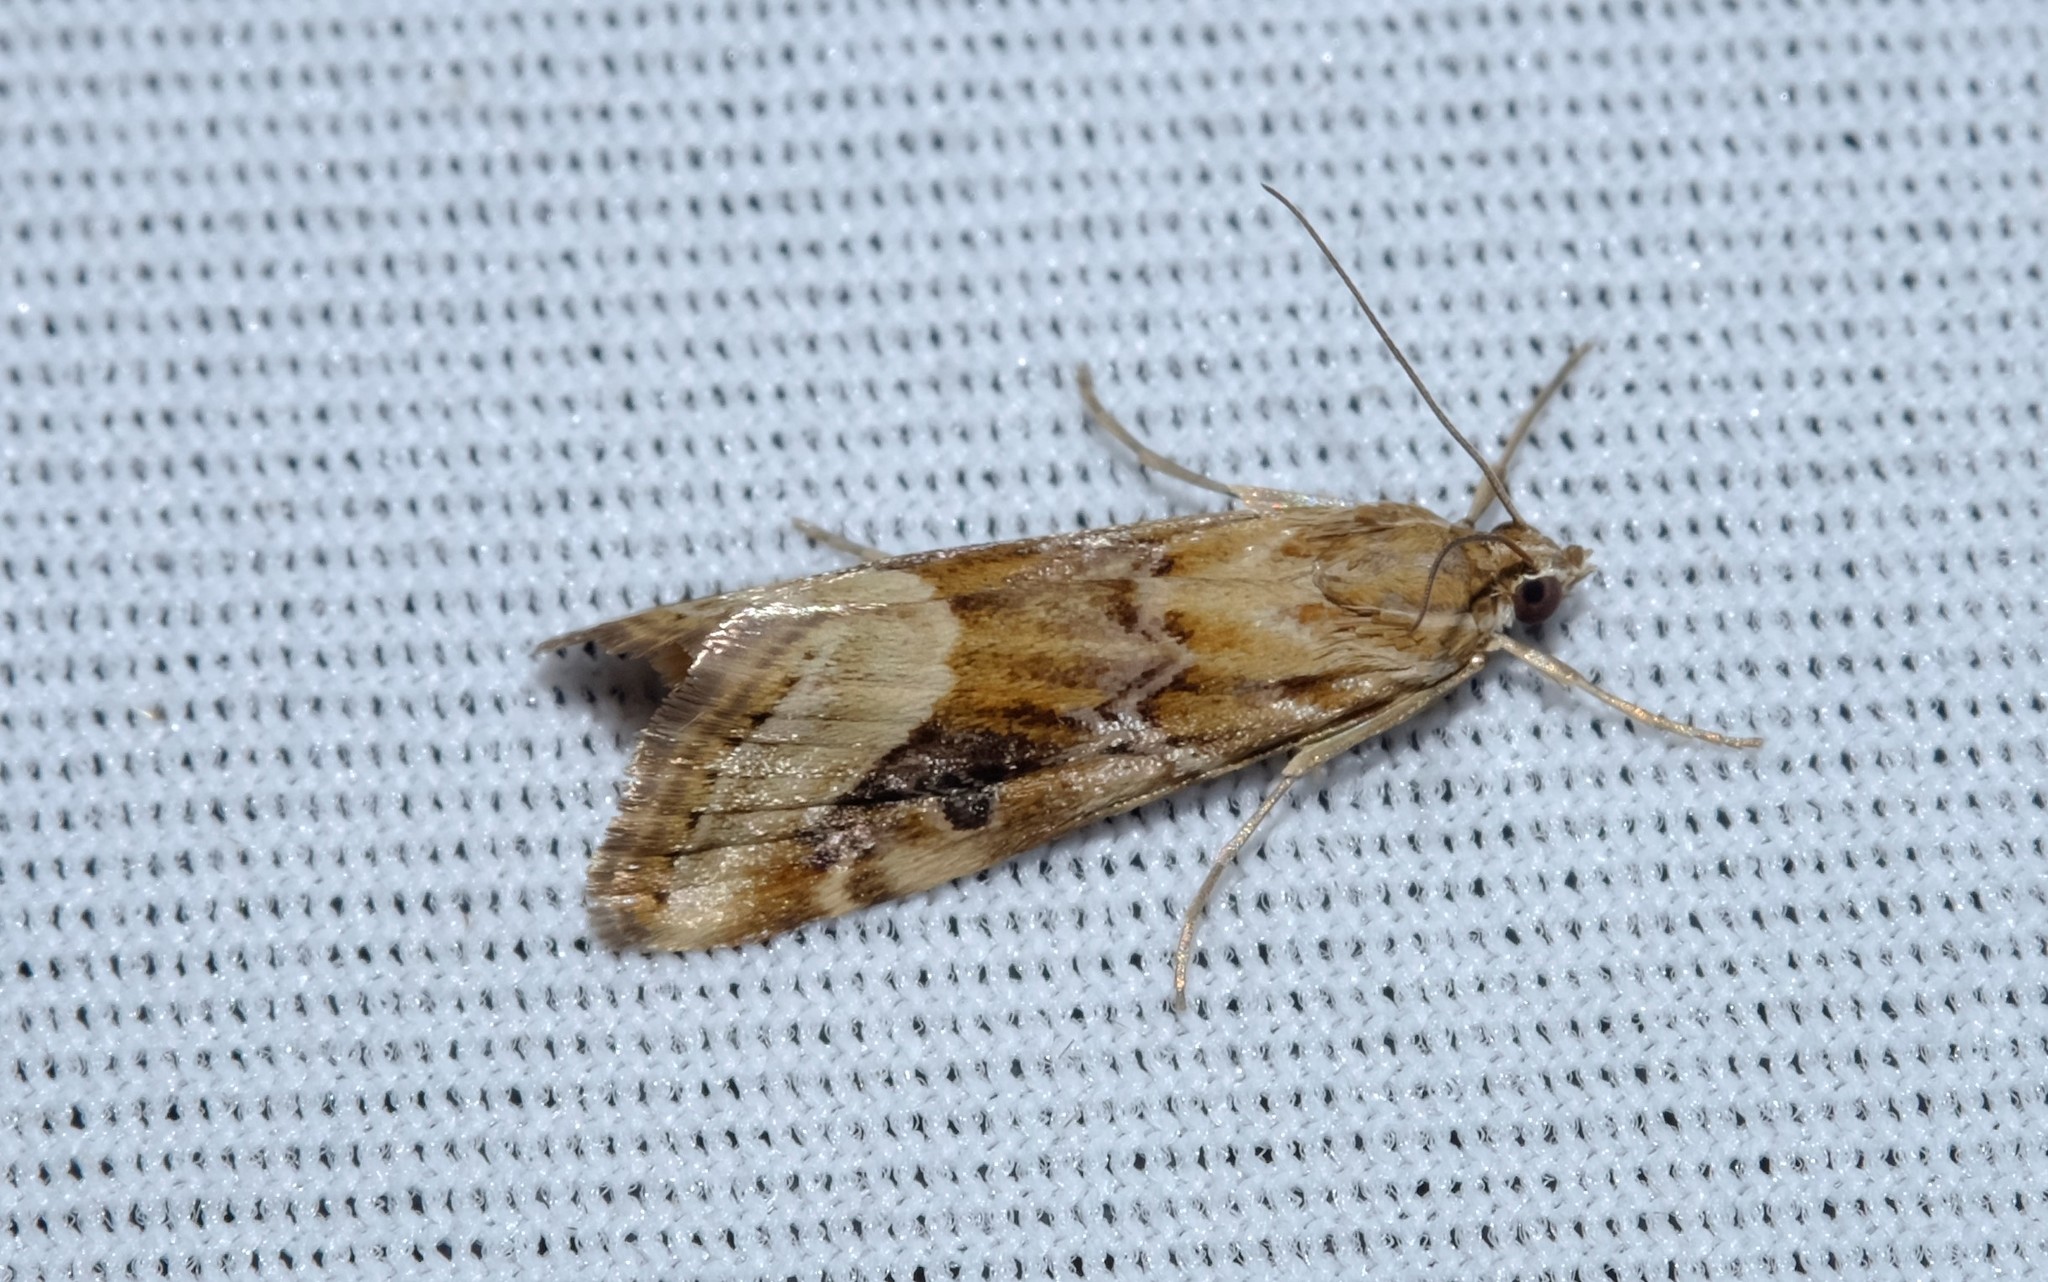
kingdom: Animalia
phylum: Arthropoda
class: Insecta
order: Lepidoptera
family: Crambidae
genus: Hellula
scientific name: Hellula hydralis
